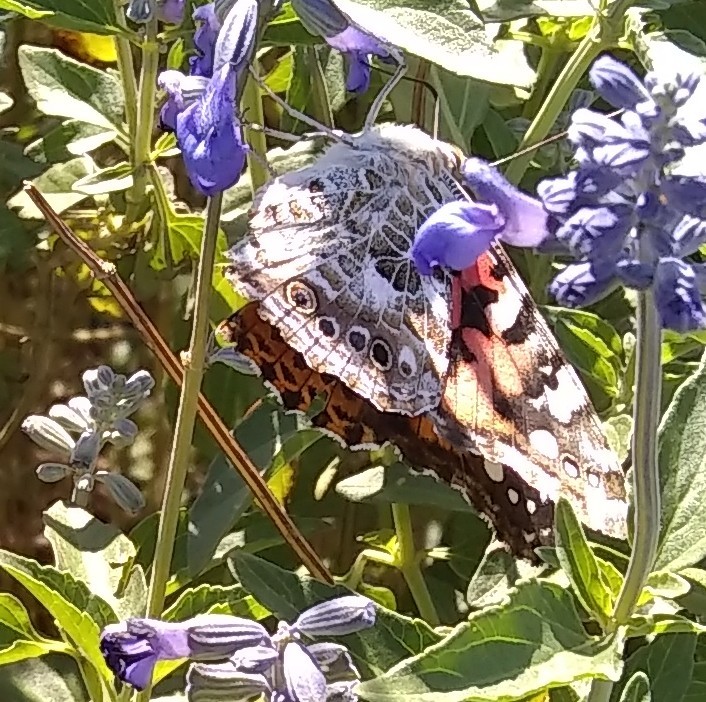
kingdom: Animalia
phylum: Arthropoda
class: Insecta
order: Lepidoptera
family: Nymphalidae
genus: Vanessa
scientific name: Vanessa cardui
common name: Painted lady
